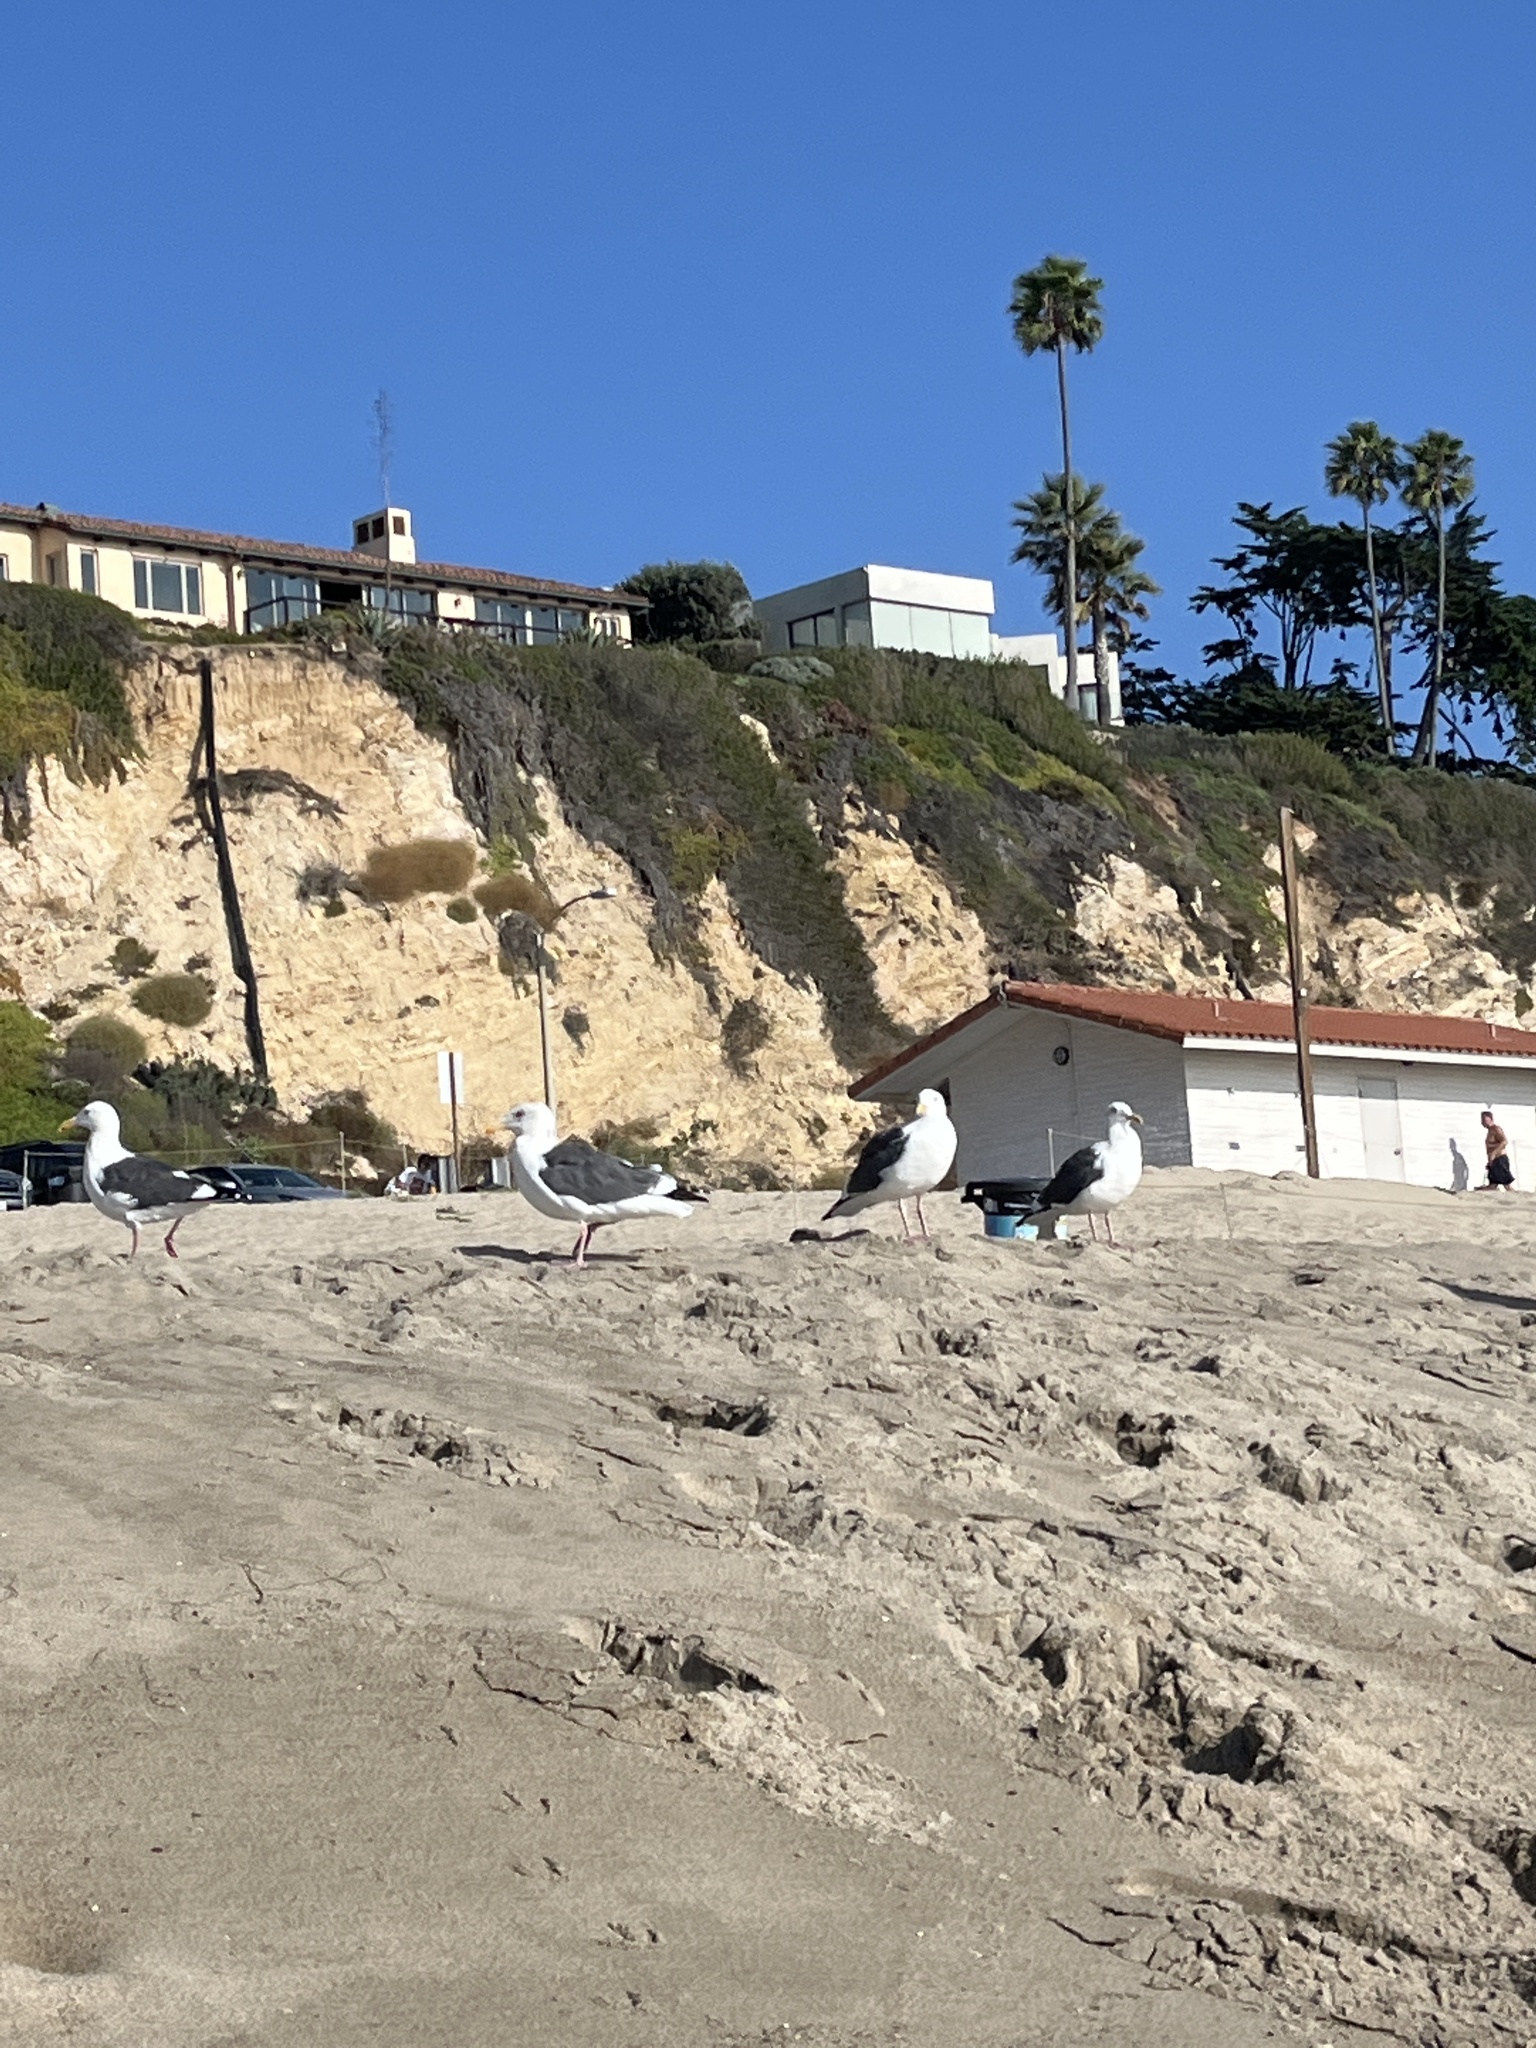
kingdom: Animalia
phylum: Chordata
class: Aves
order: Charadriiformes
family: Laridae
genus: Larus
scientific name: Larus occidentalis
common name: Western gull
